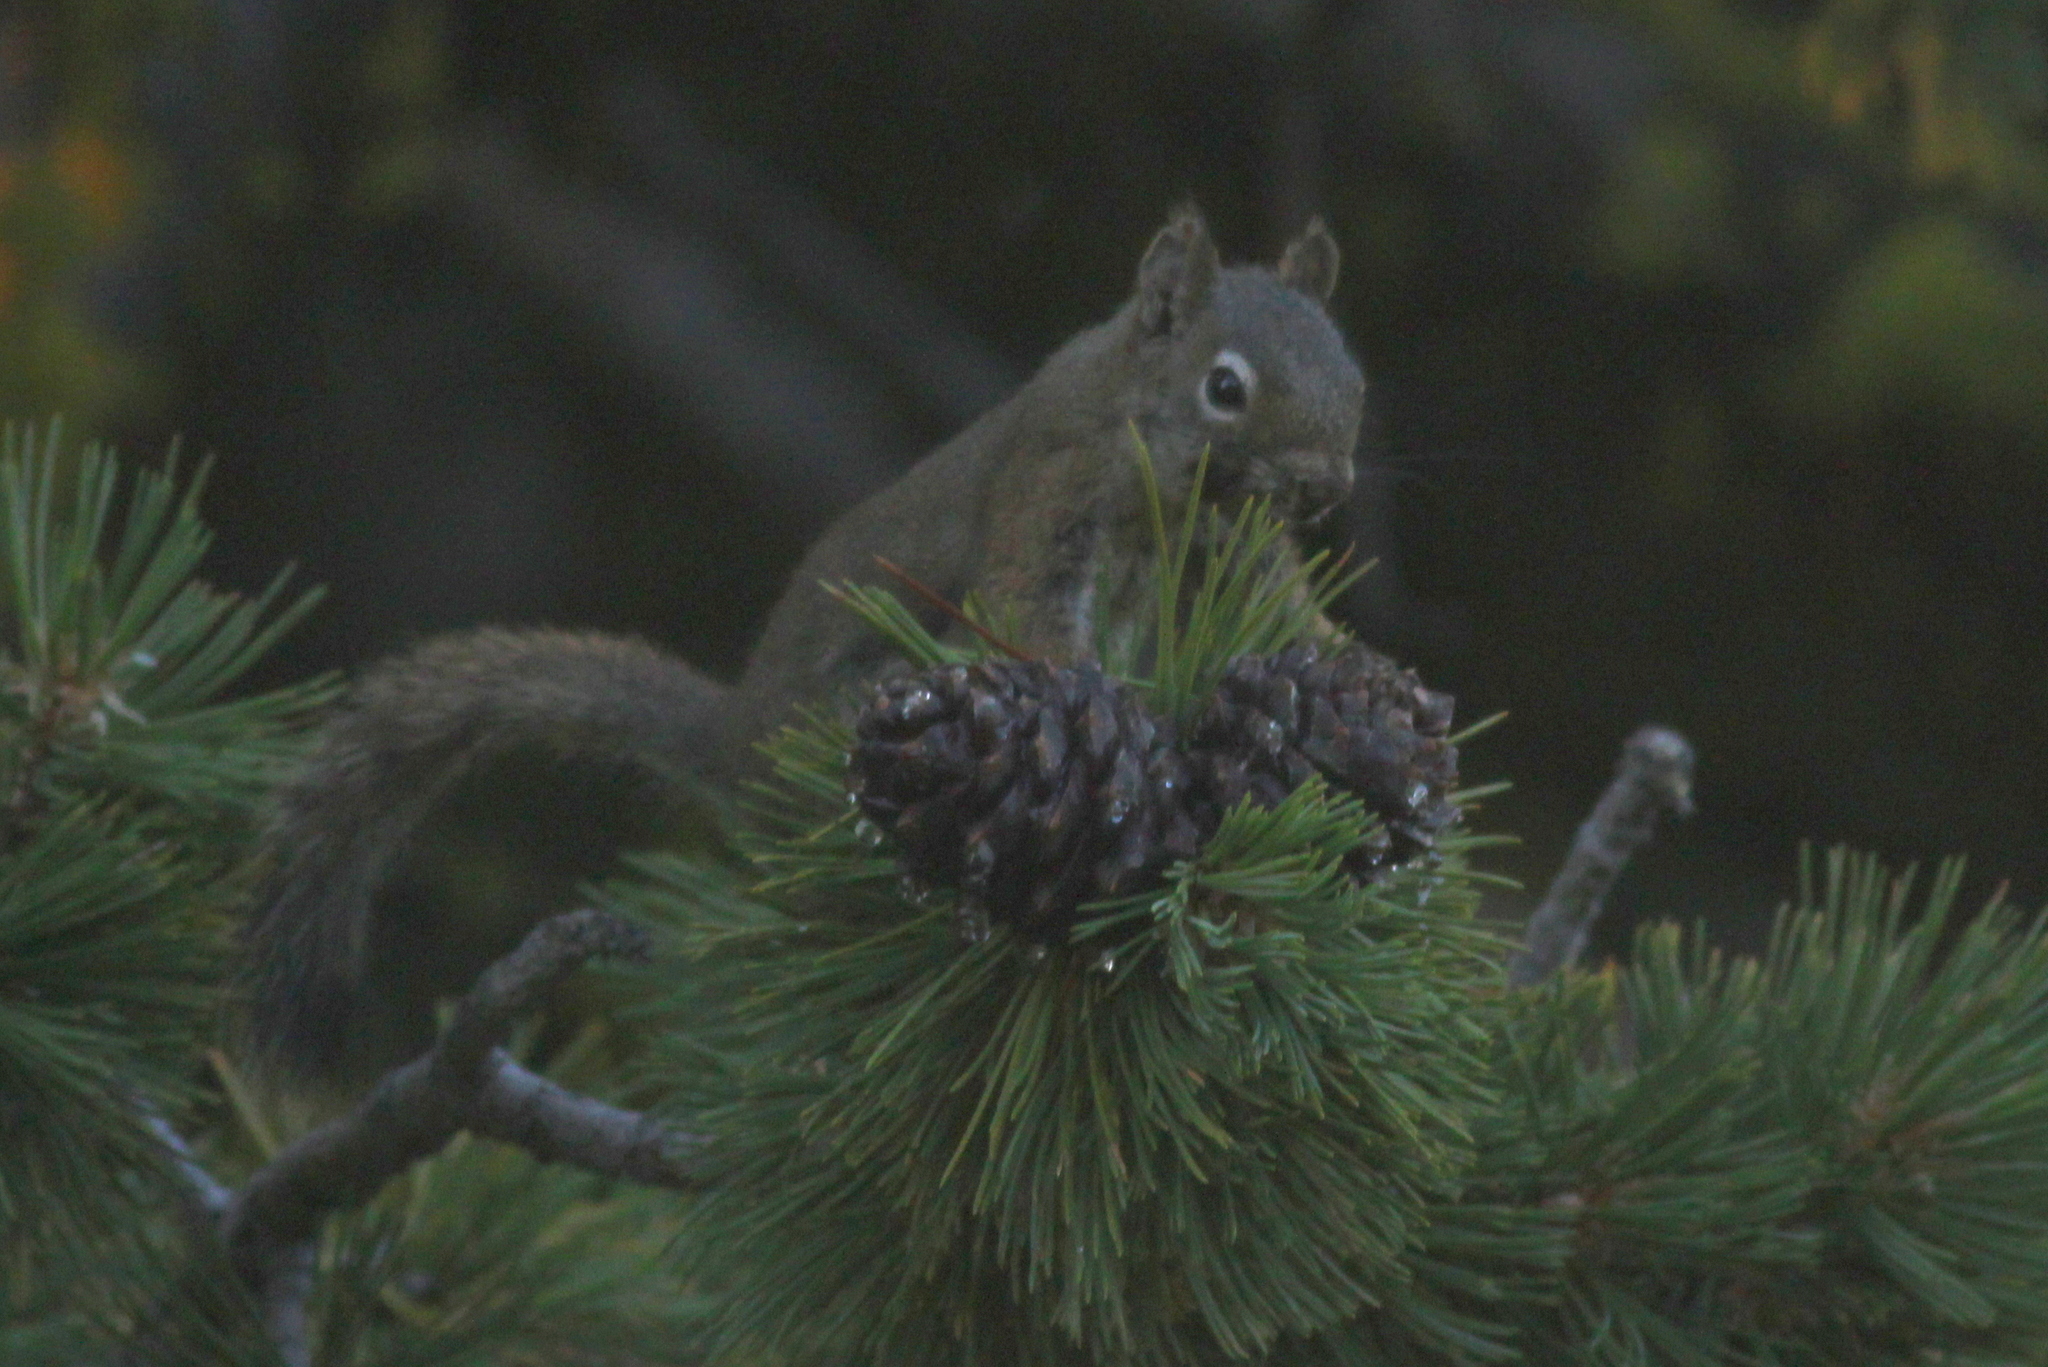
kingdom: Animalia
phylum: Chordata
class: Mammalia
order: Rodentia
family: Sciuridae
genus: Tamiasciurus
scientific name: Tamiasciurus hudsonicus
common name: Red squirrel
